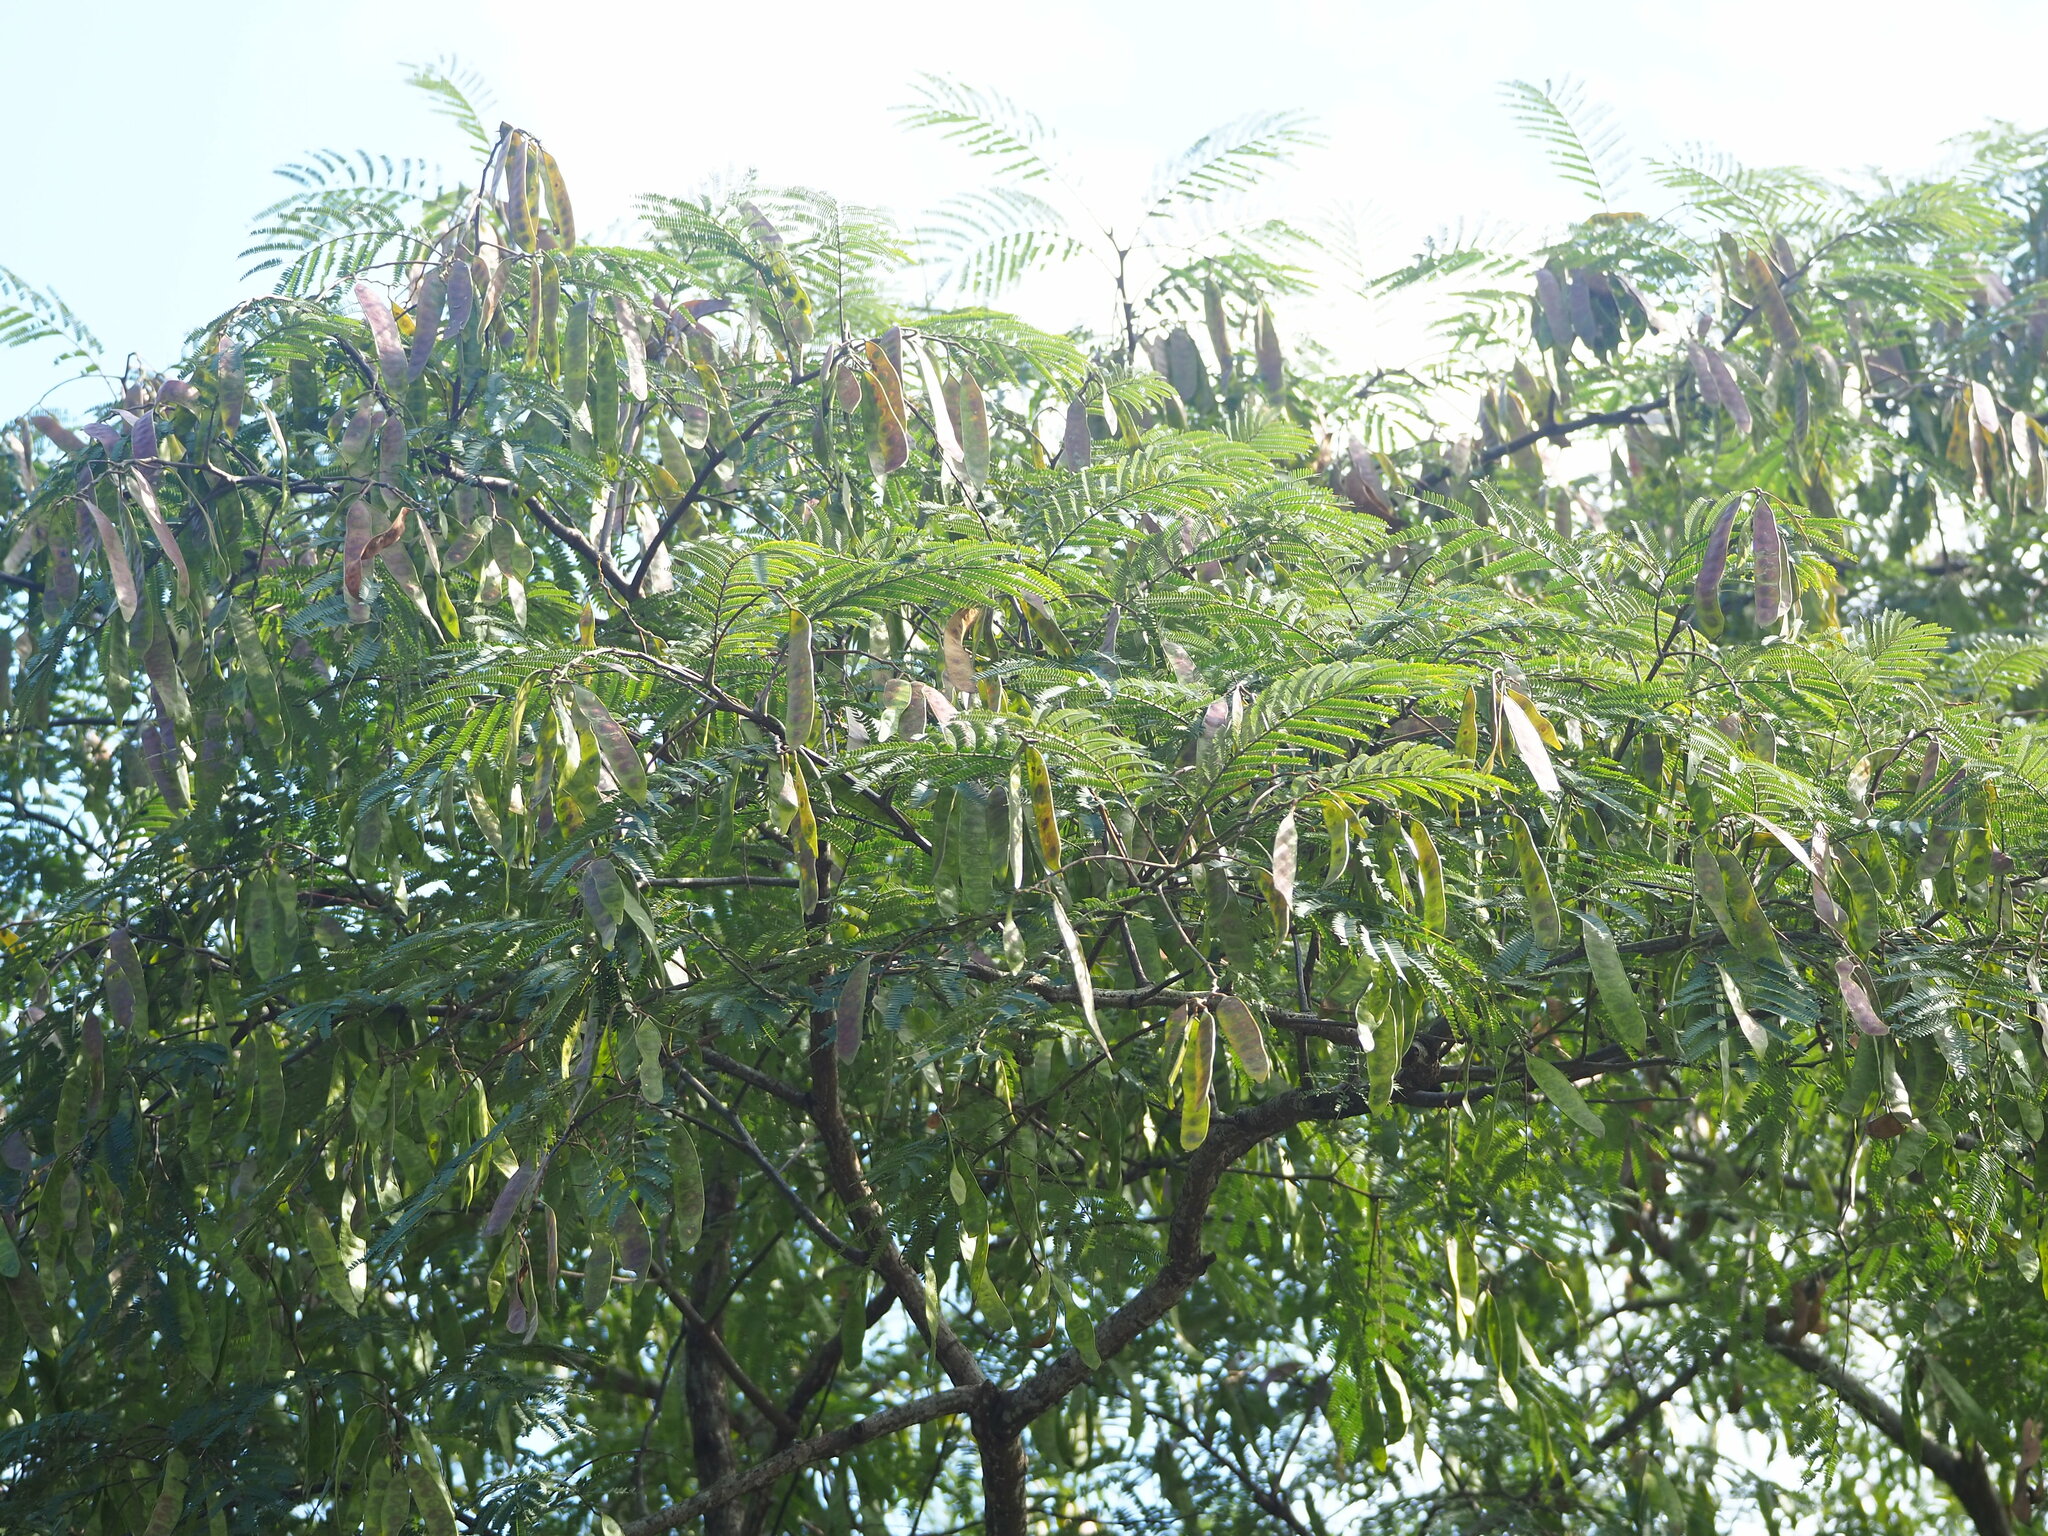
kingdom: Plantae
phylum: Tracheophyta
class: Magnoliopsida
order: Fabales
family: Fabaceae
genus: Albizia
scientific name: Albizia chinensis
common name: Chinese albizia
